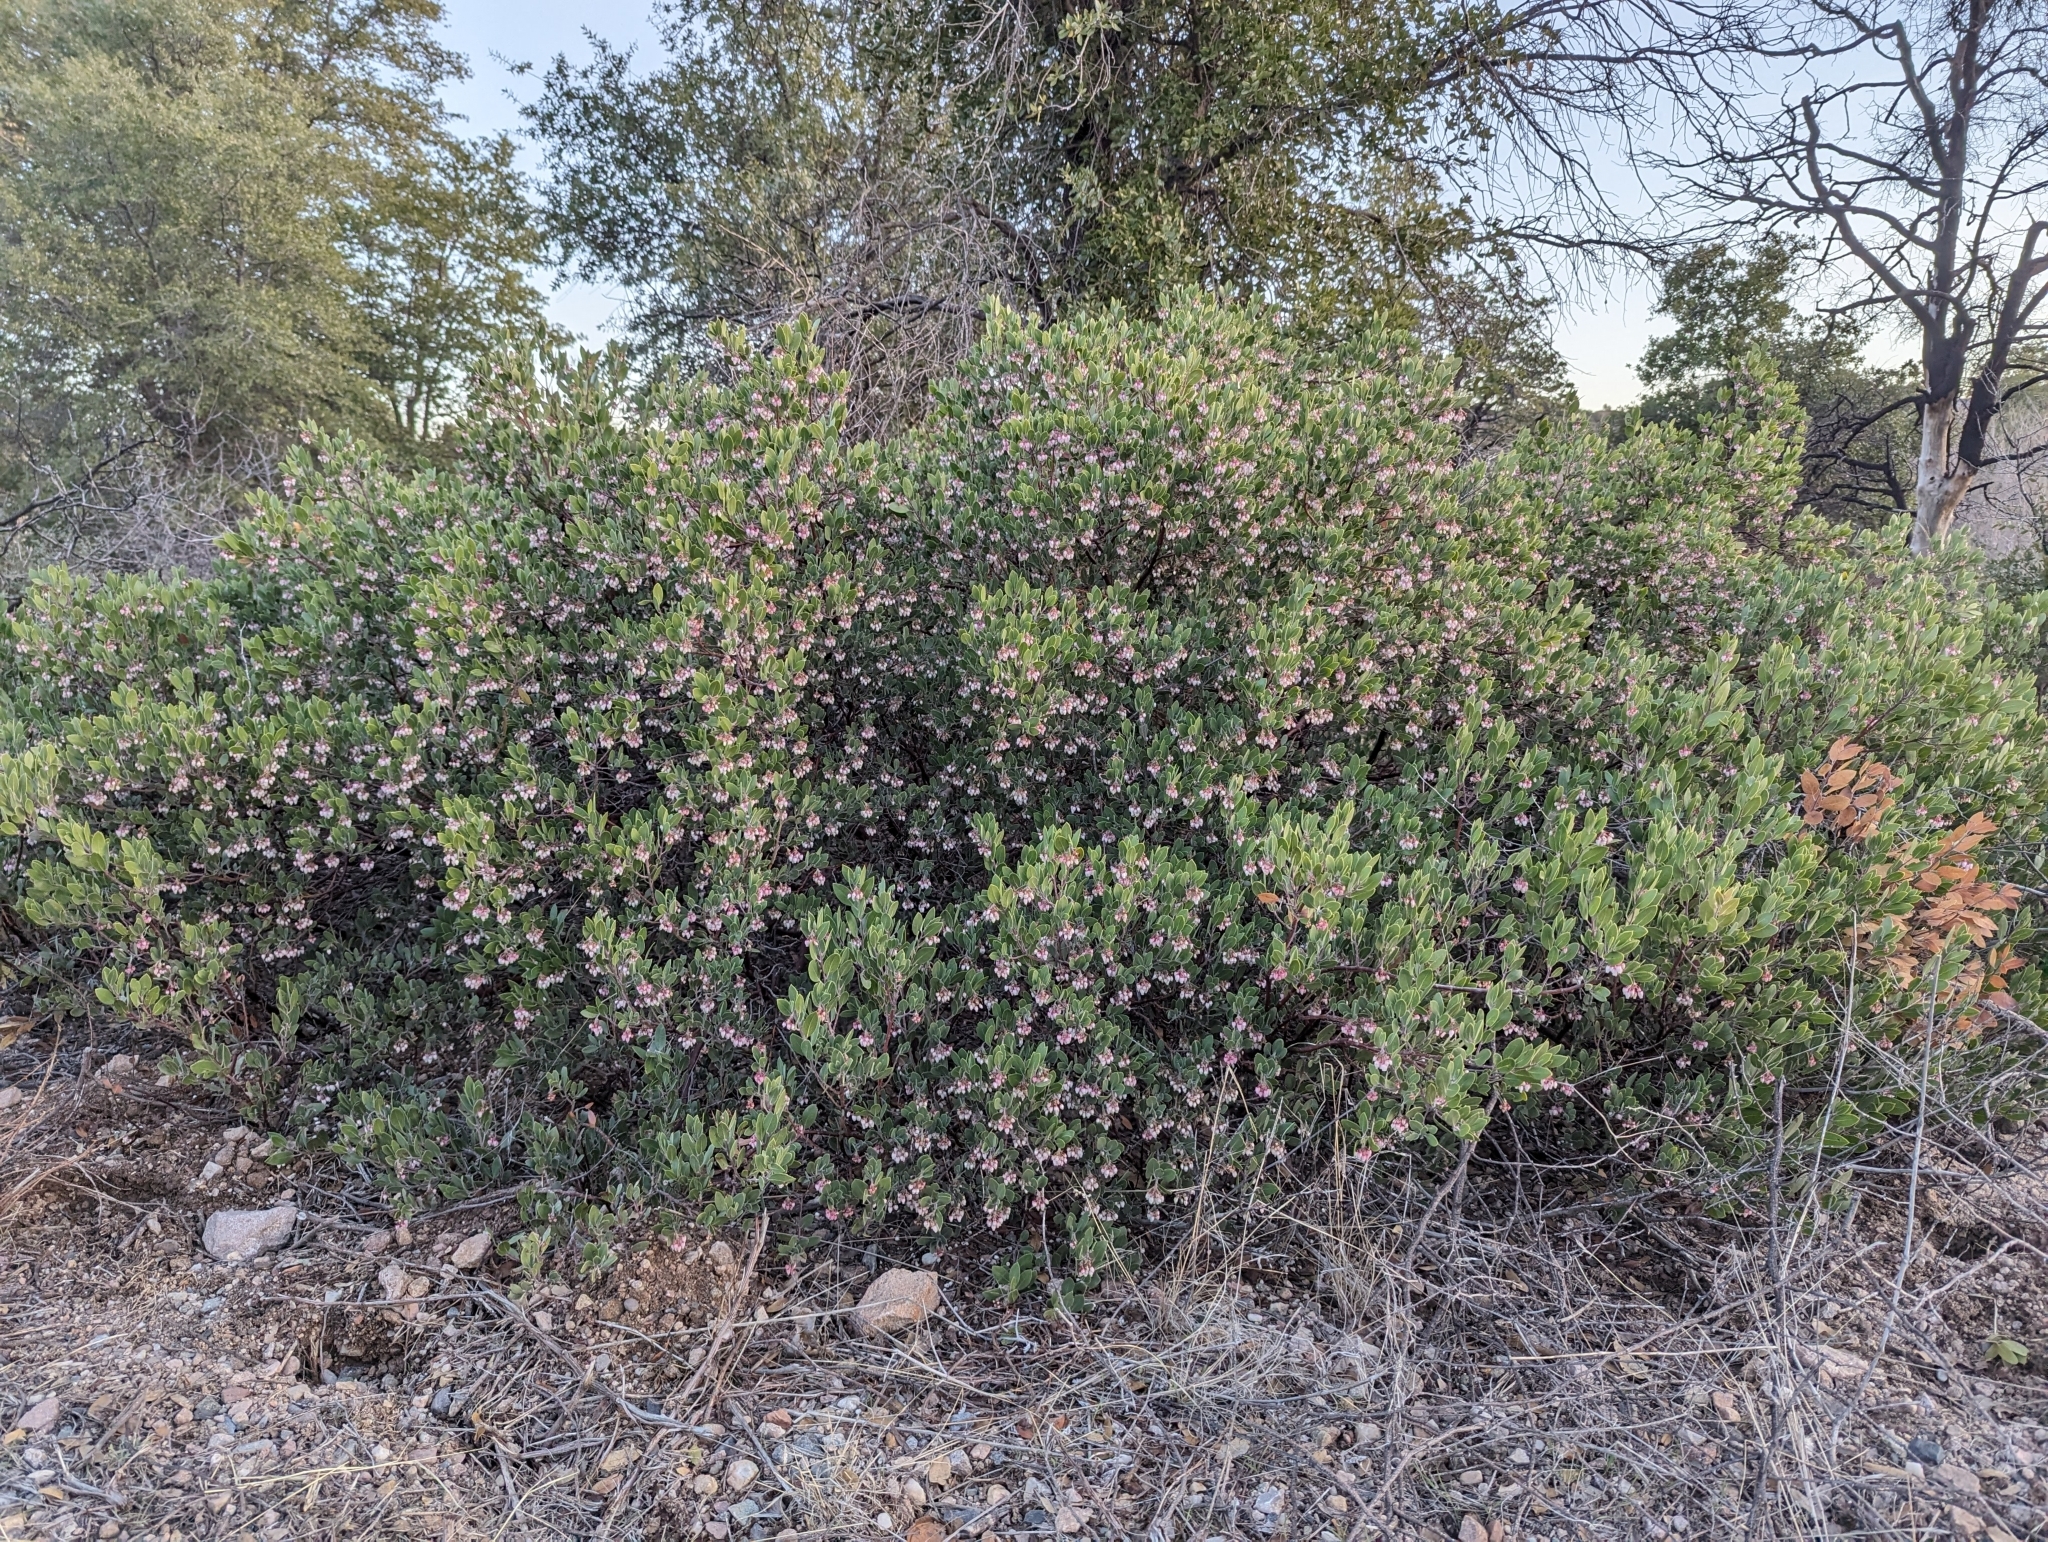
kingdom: Plantae
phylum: Tracheophyta
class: Magnoliopsida
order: Ericales
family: Ericaceae
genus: Arctostaphylos
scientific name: Arctostaphylos pungens
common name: Mexican manzanita
